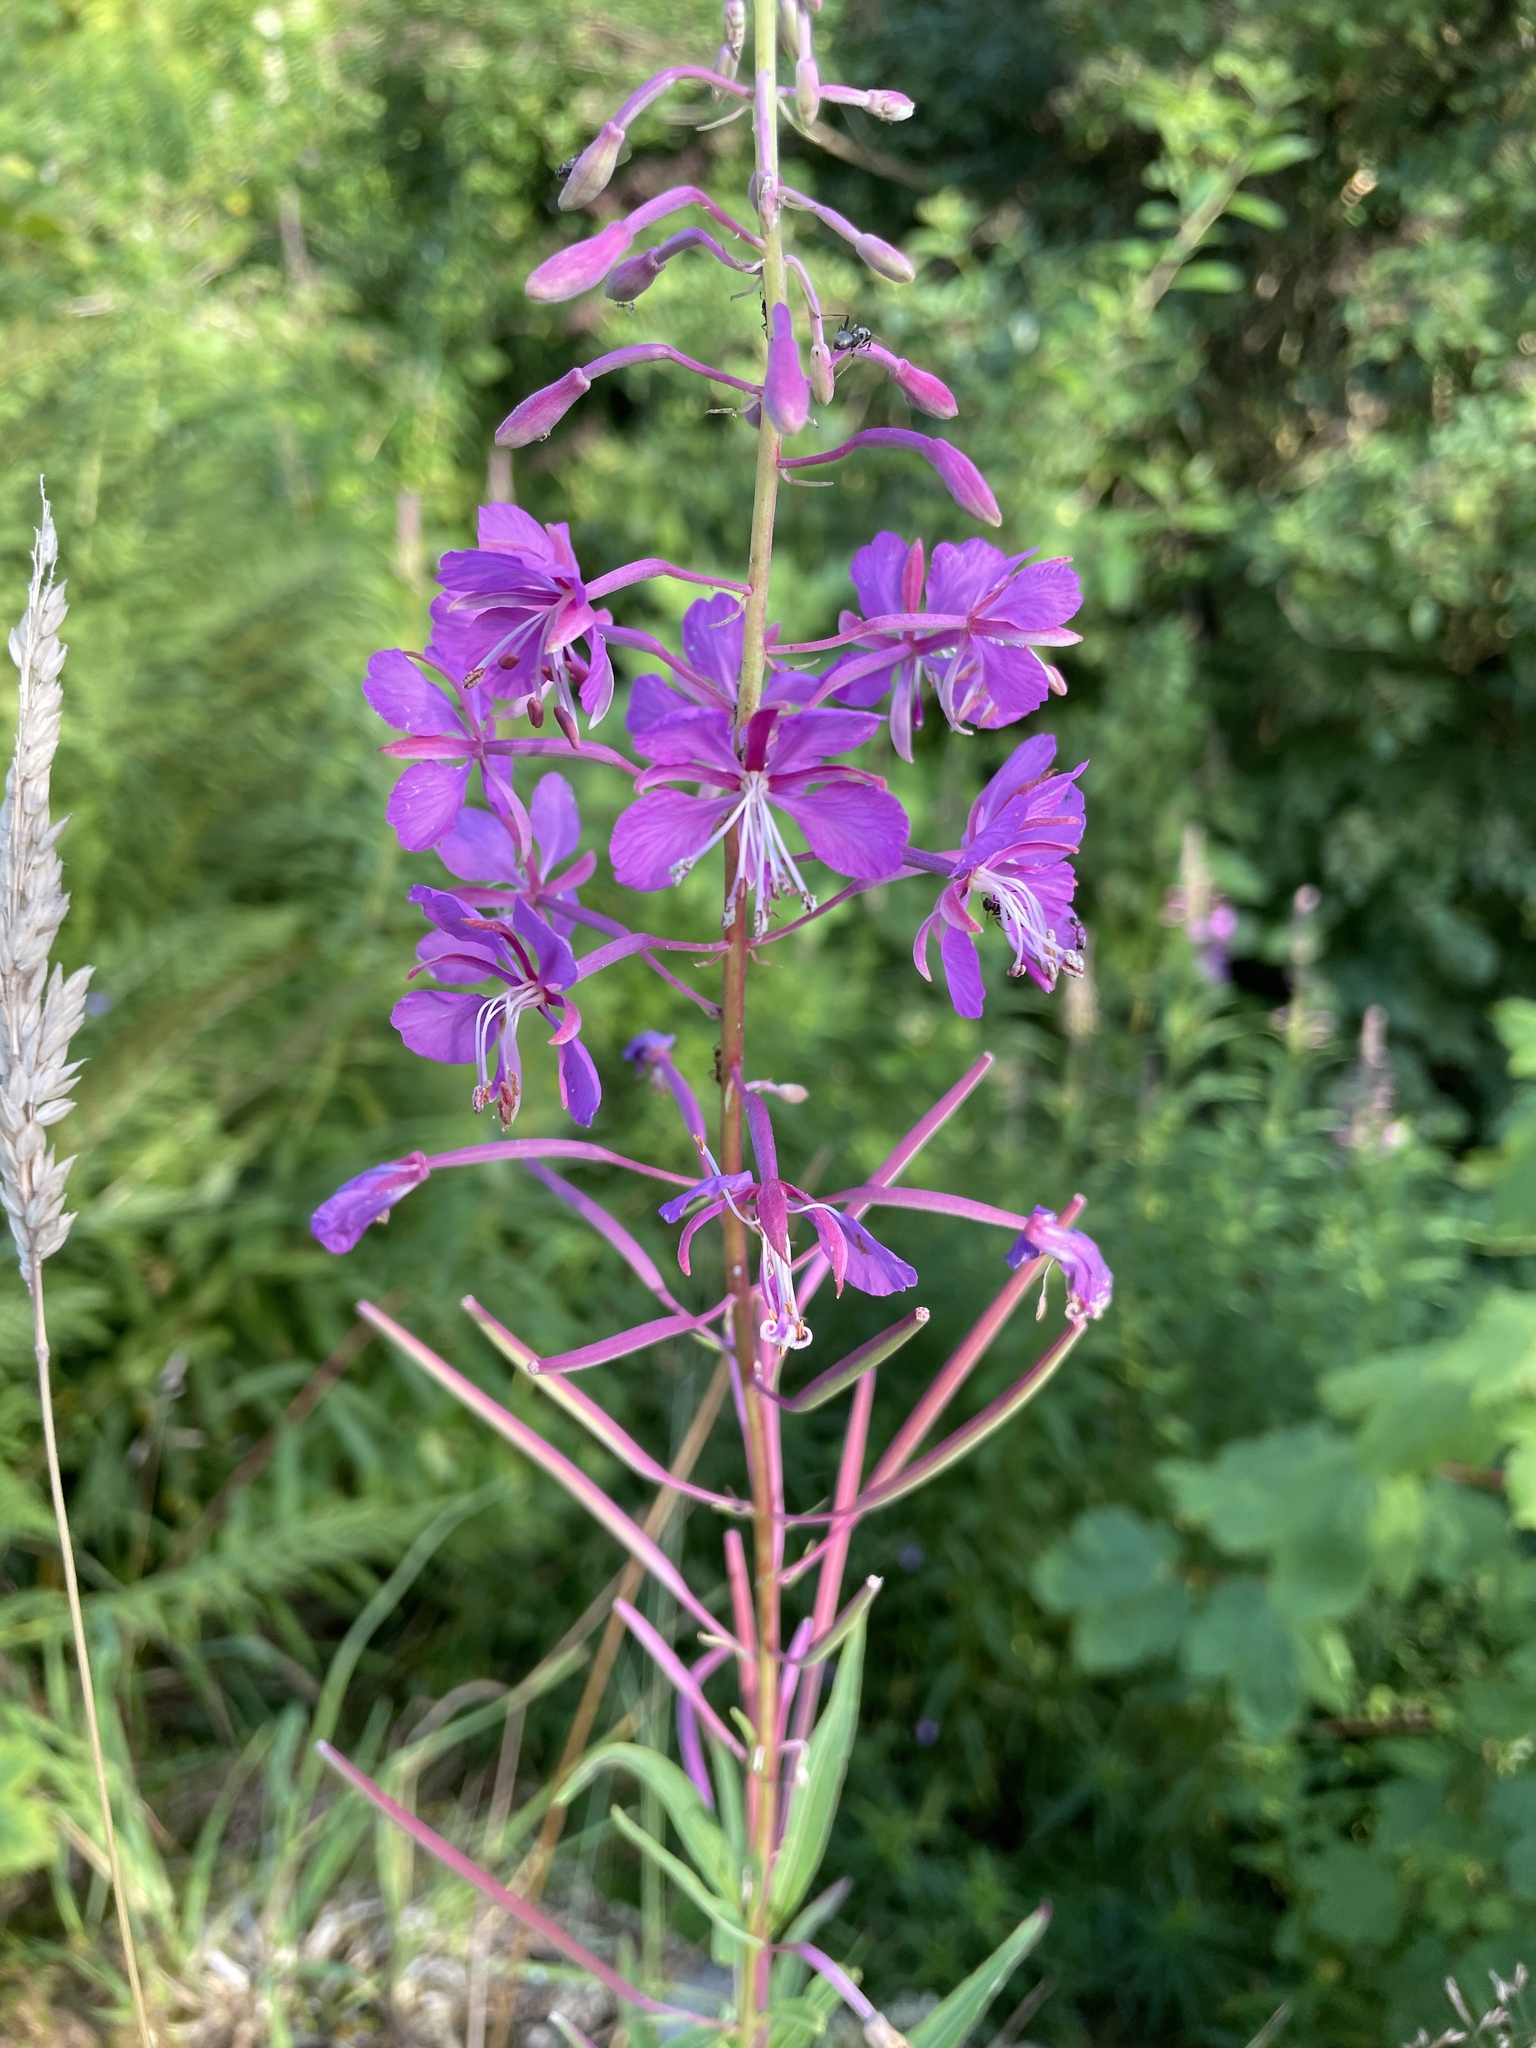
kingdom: Plantae
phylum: Tracheophyta
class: Magnoliopsida
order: Myrtales
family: Onagraceae
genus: Chamaenerion
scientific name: Chamaenerion angustifolium
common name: Fireweed
